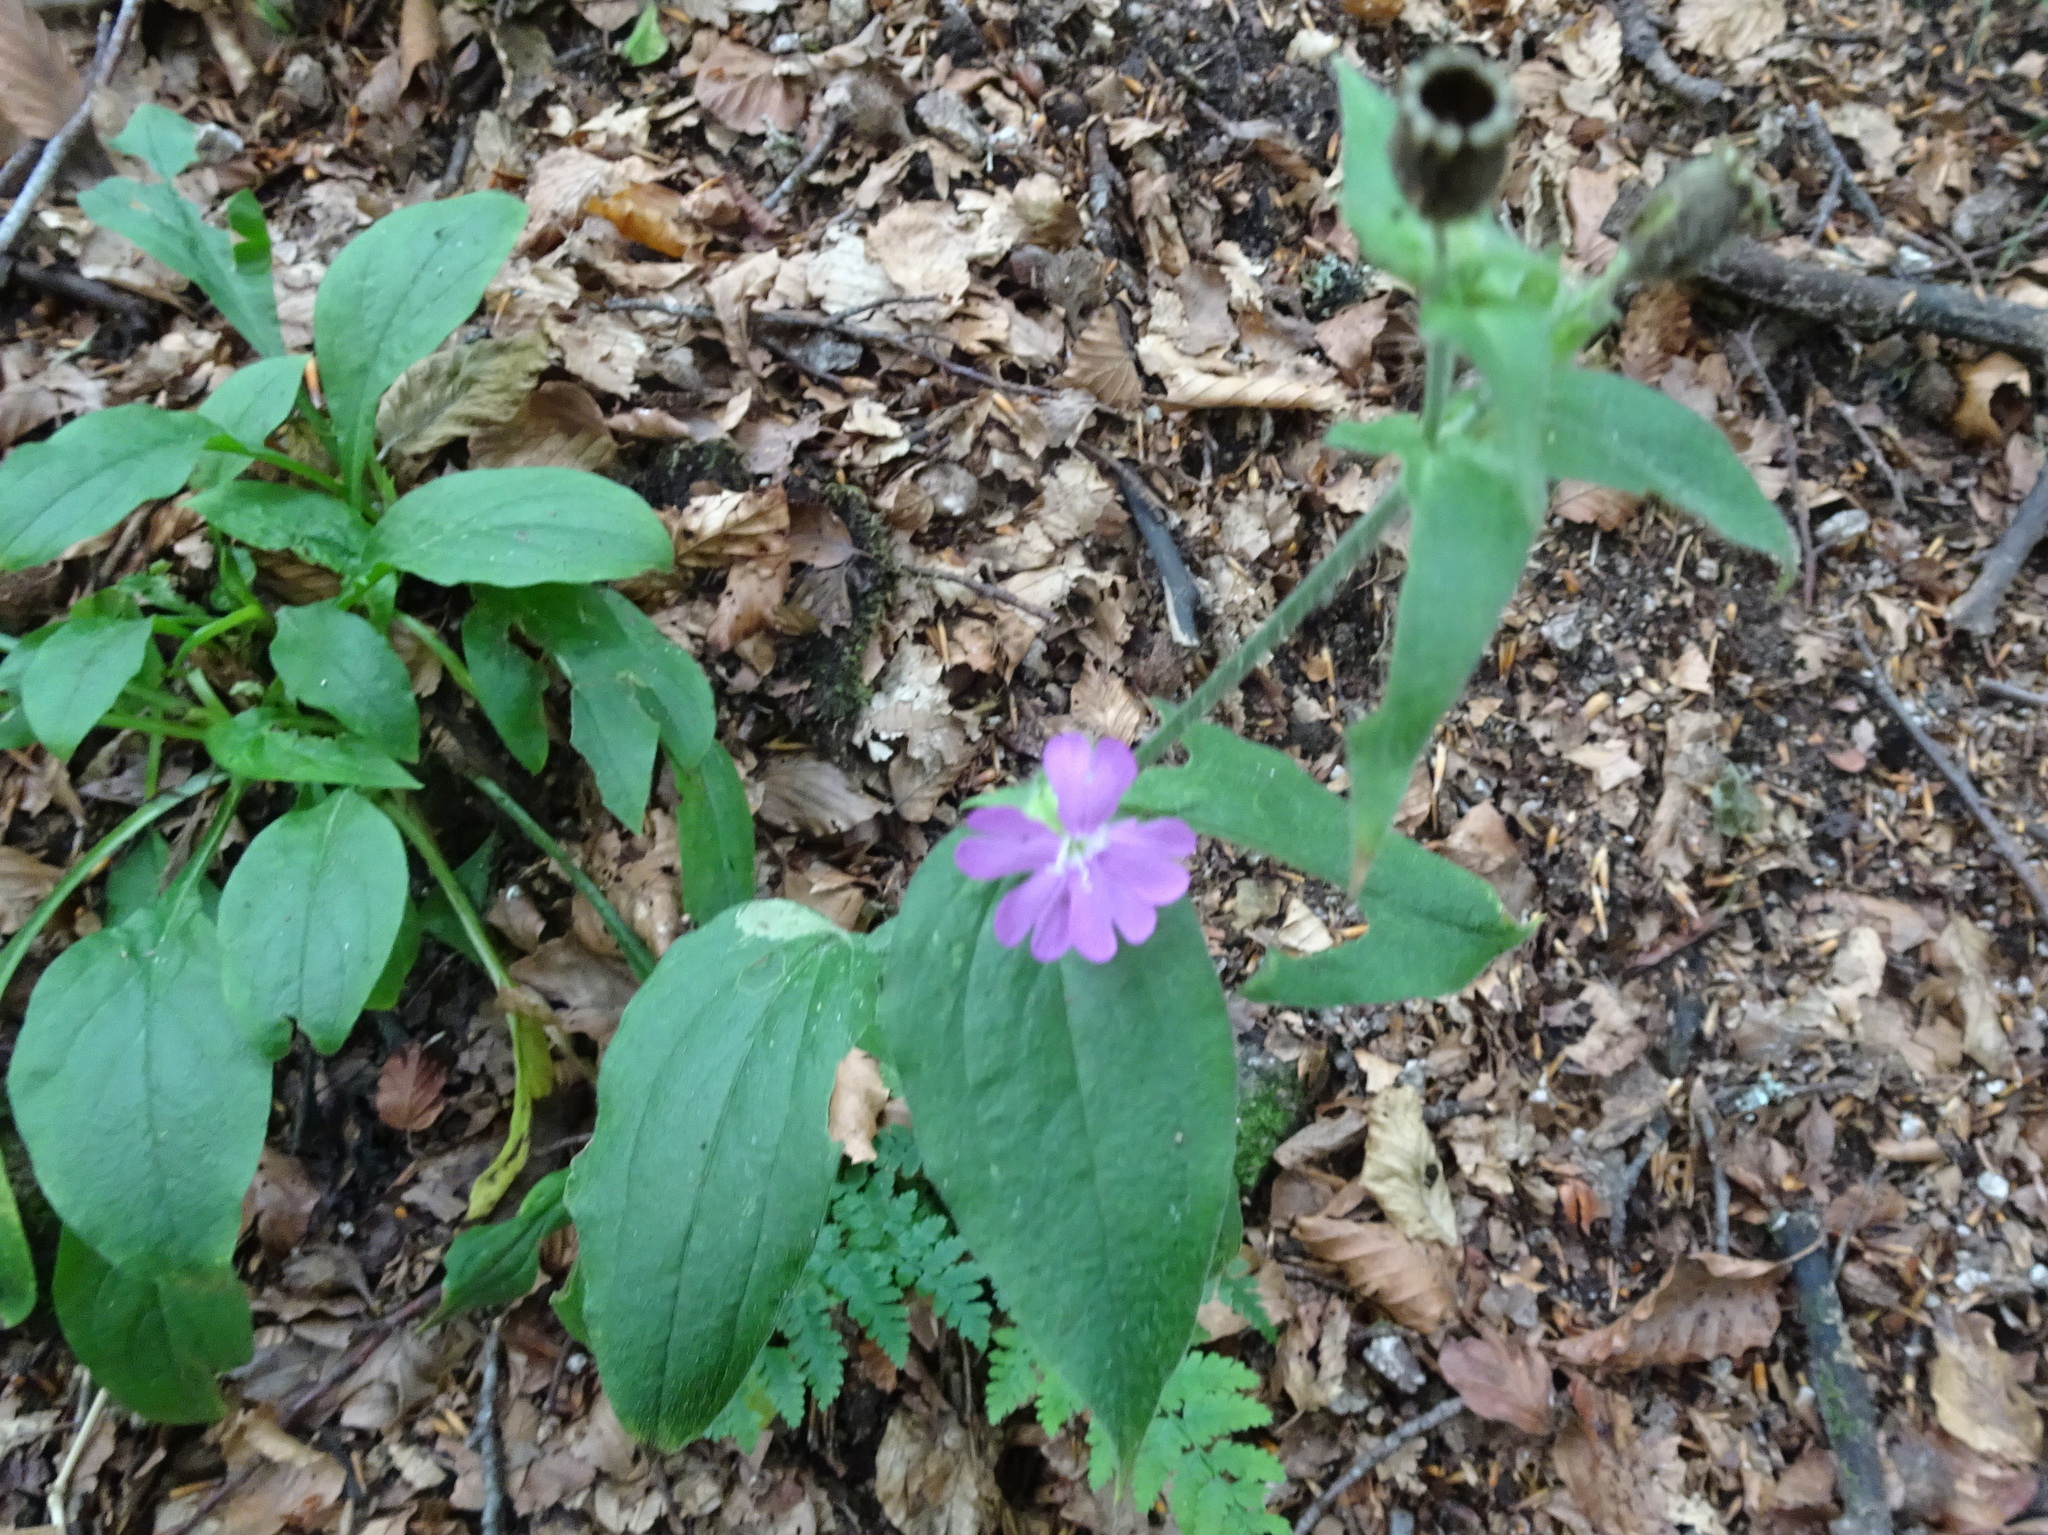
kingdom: Plantae
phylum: Tracheophyta
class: Magnoliopsida
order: Caryophyllales
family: Caryophyllaceae
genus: Silene
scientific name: Silene dioica
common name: Red campion
